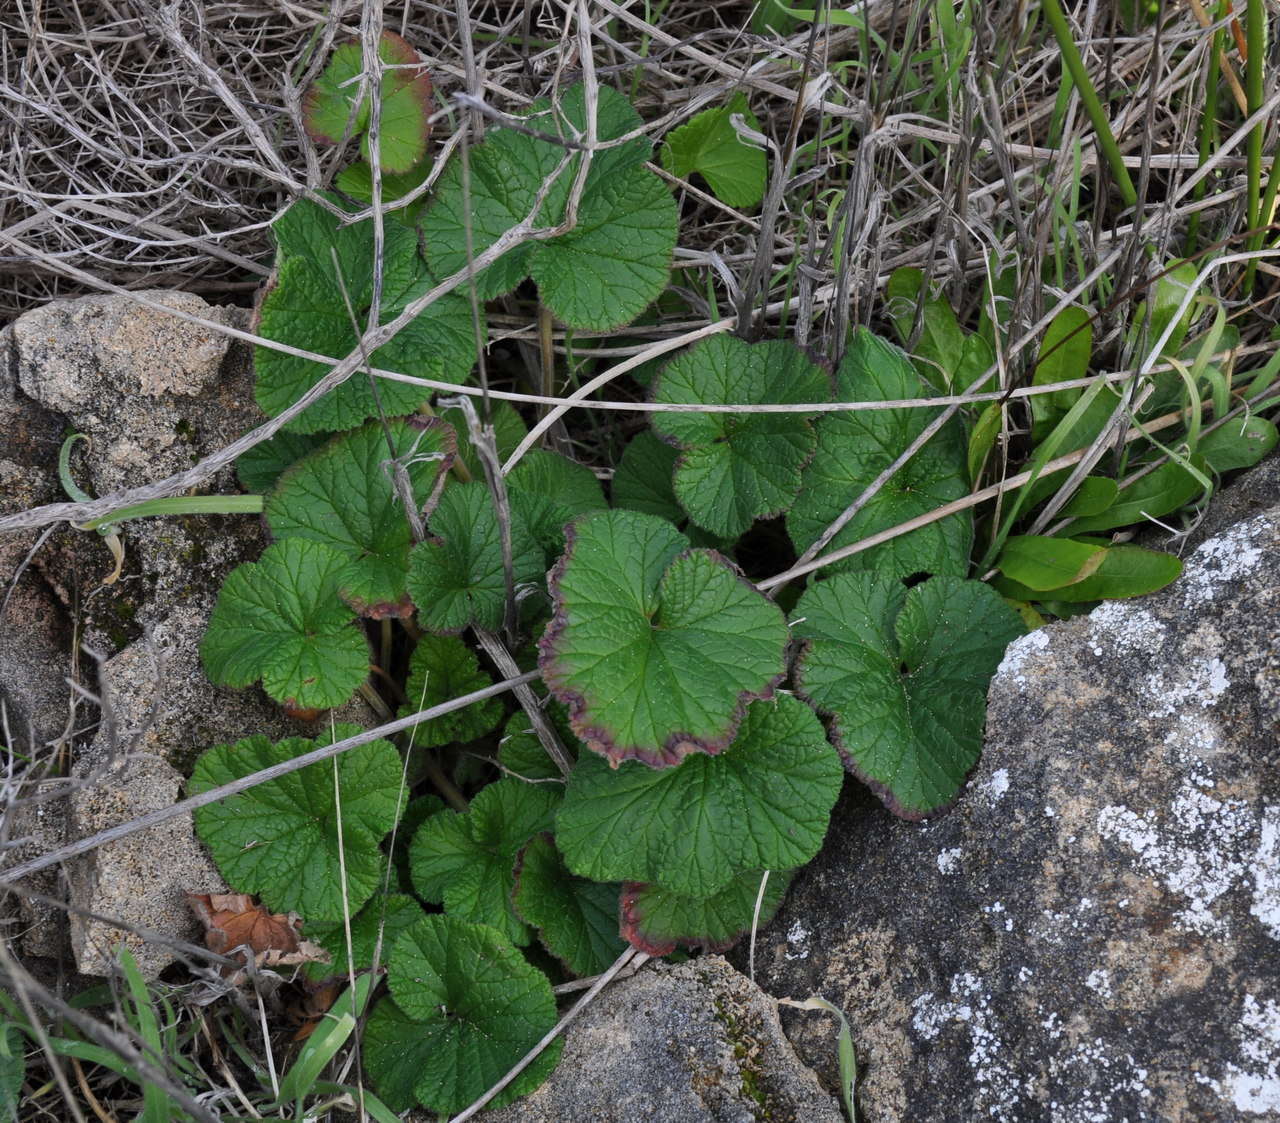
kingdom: Plantae
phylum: Tracheophyta
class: Magnoliopsida
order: Geraniales
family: Geraniaceae
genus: Pelargonium
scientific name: Pelargonium australe
